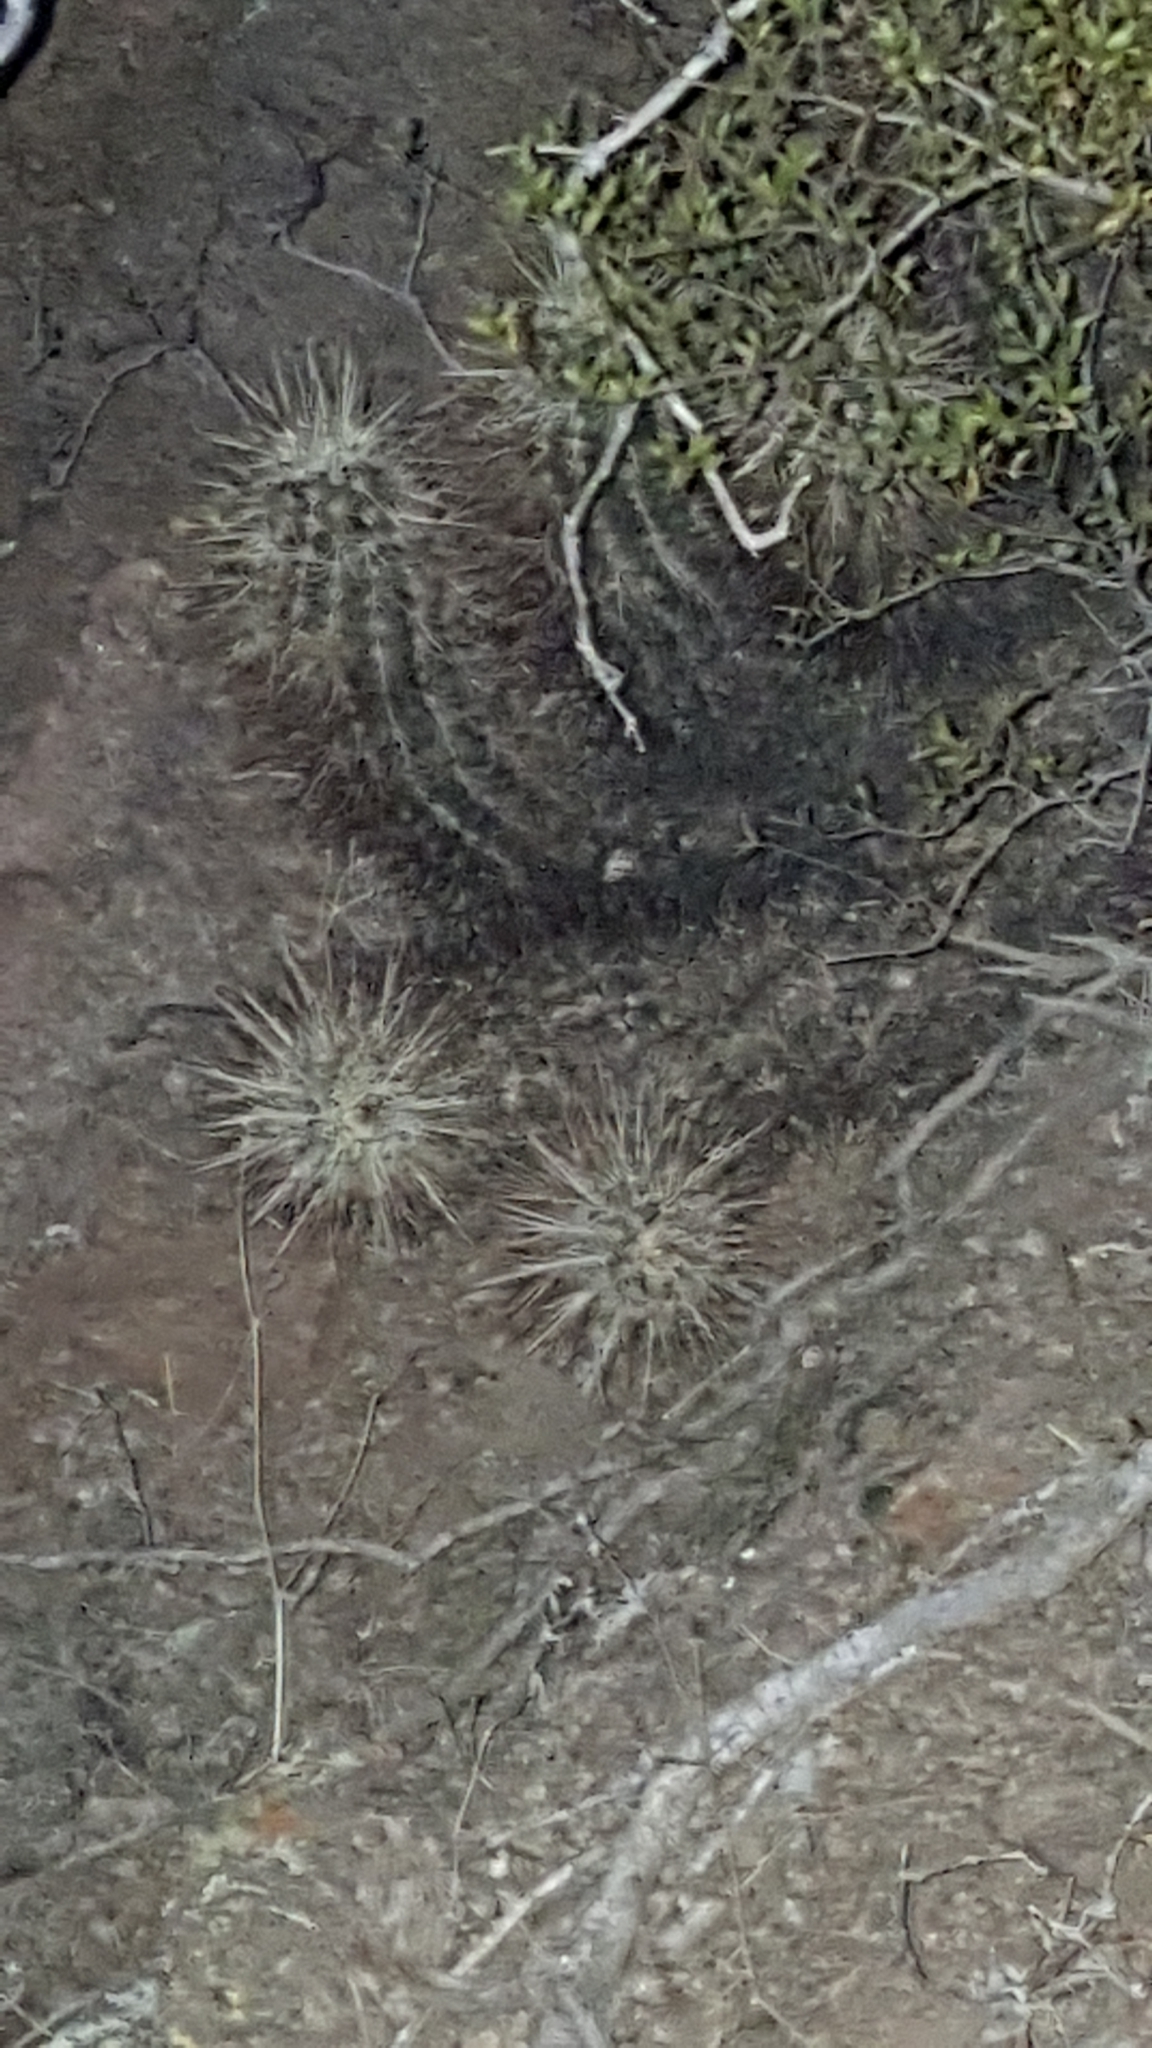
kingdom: Plantae
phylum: Tracheophyta
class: Magnoliopsida
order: Caryophyllales
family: Cactaceae
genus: Echinocereus
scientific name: Echinocereus engelmannii
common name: Engelmann's hedgehog cactus
